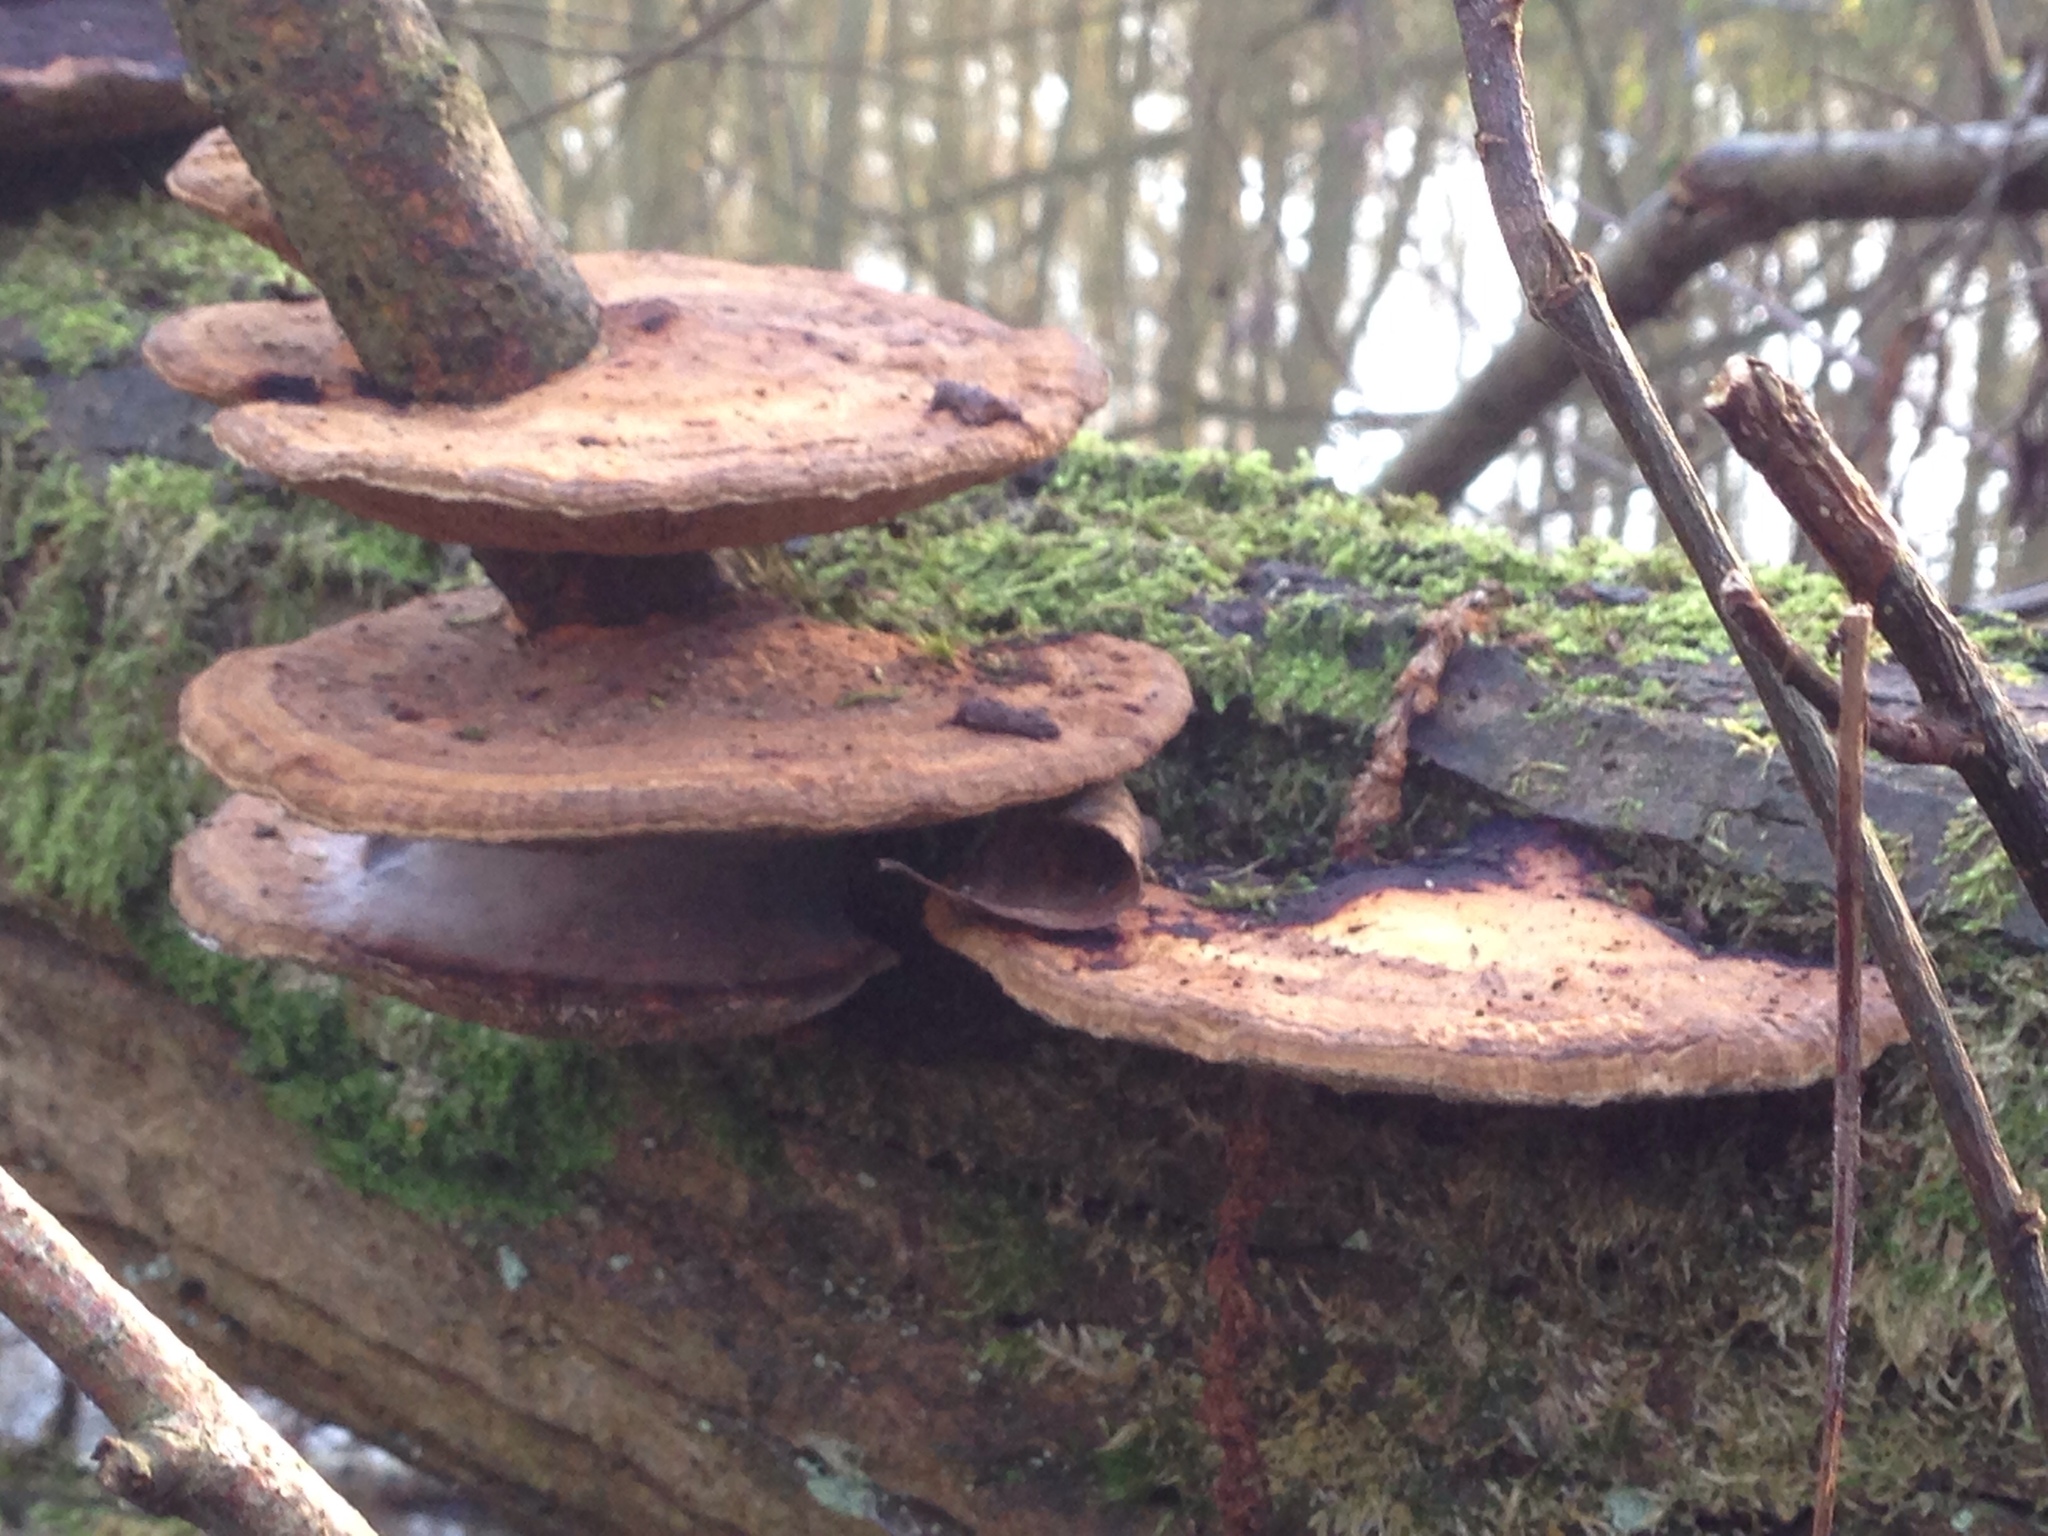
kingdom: Fungi
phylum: Basidiomycota
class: Agaricomycetes
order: Polyporales
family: Polyporaceae
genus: Daedaleopsis
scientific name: Daedaleopsis confragosa
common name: Blushing bracket
